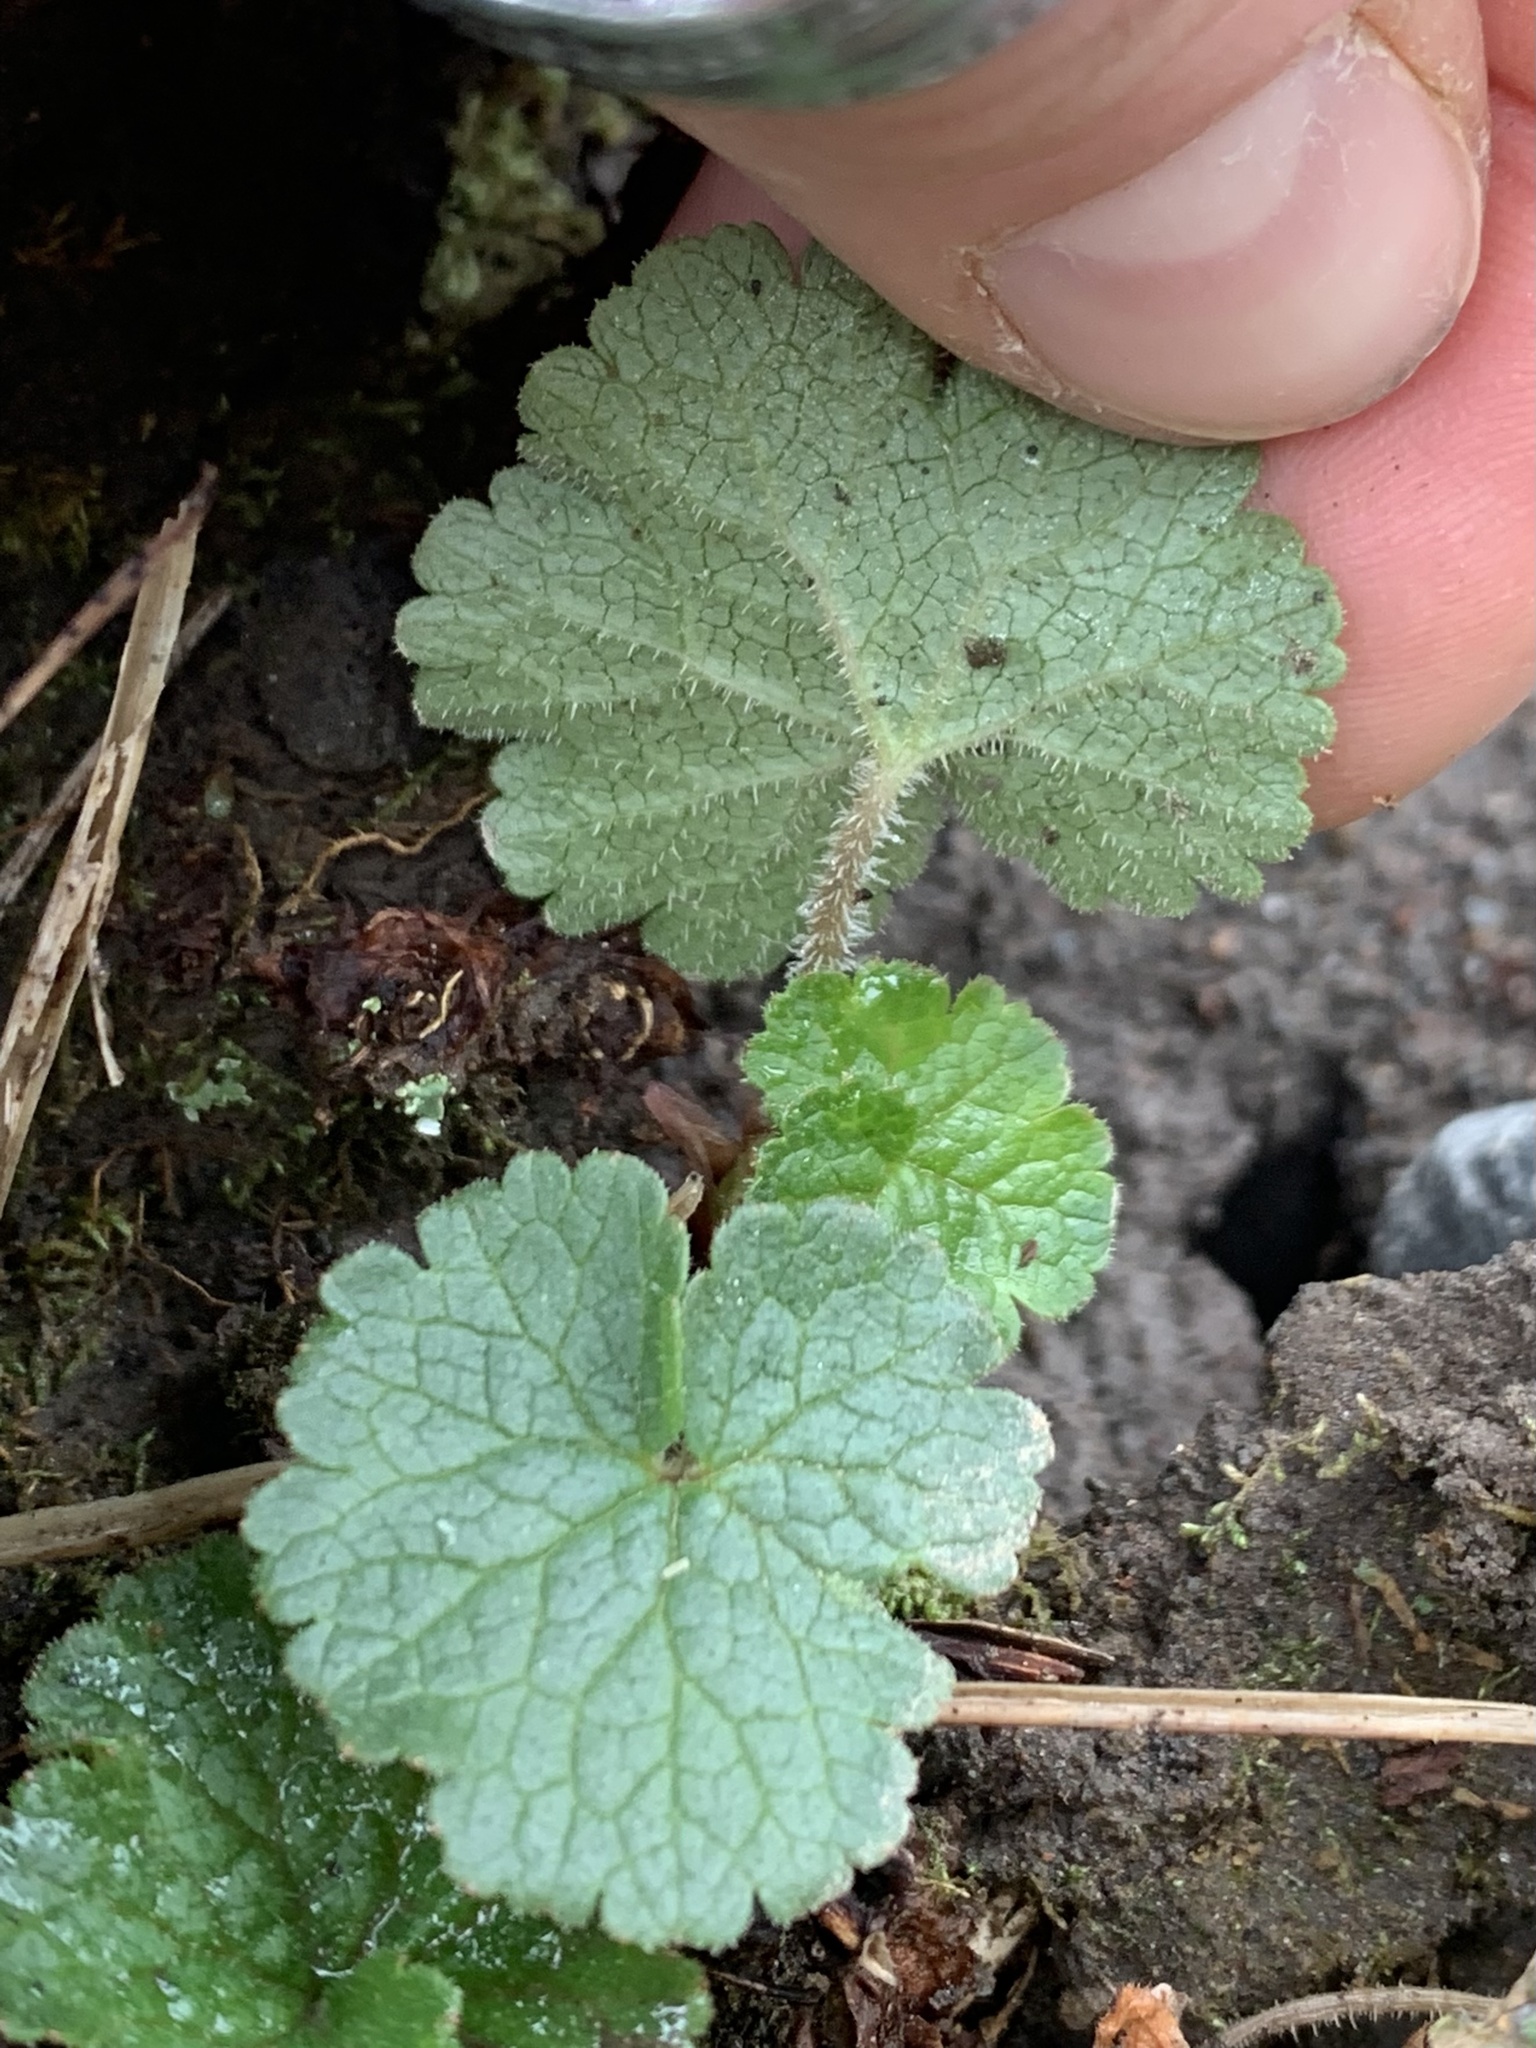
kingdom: Plantae
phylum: Tracheophyta
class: Magnoliopsida
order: Saxifragales
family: Saxifragaceae
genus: Elmera
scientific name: Elmera racemosa
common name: Elmera
